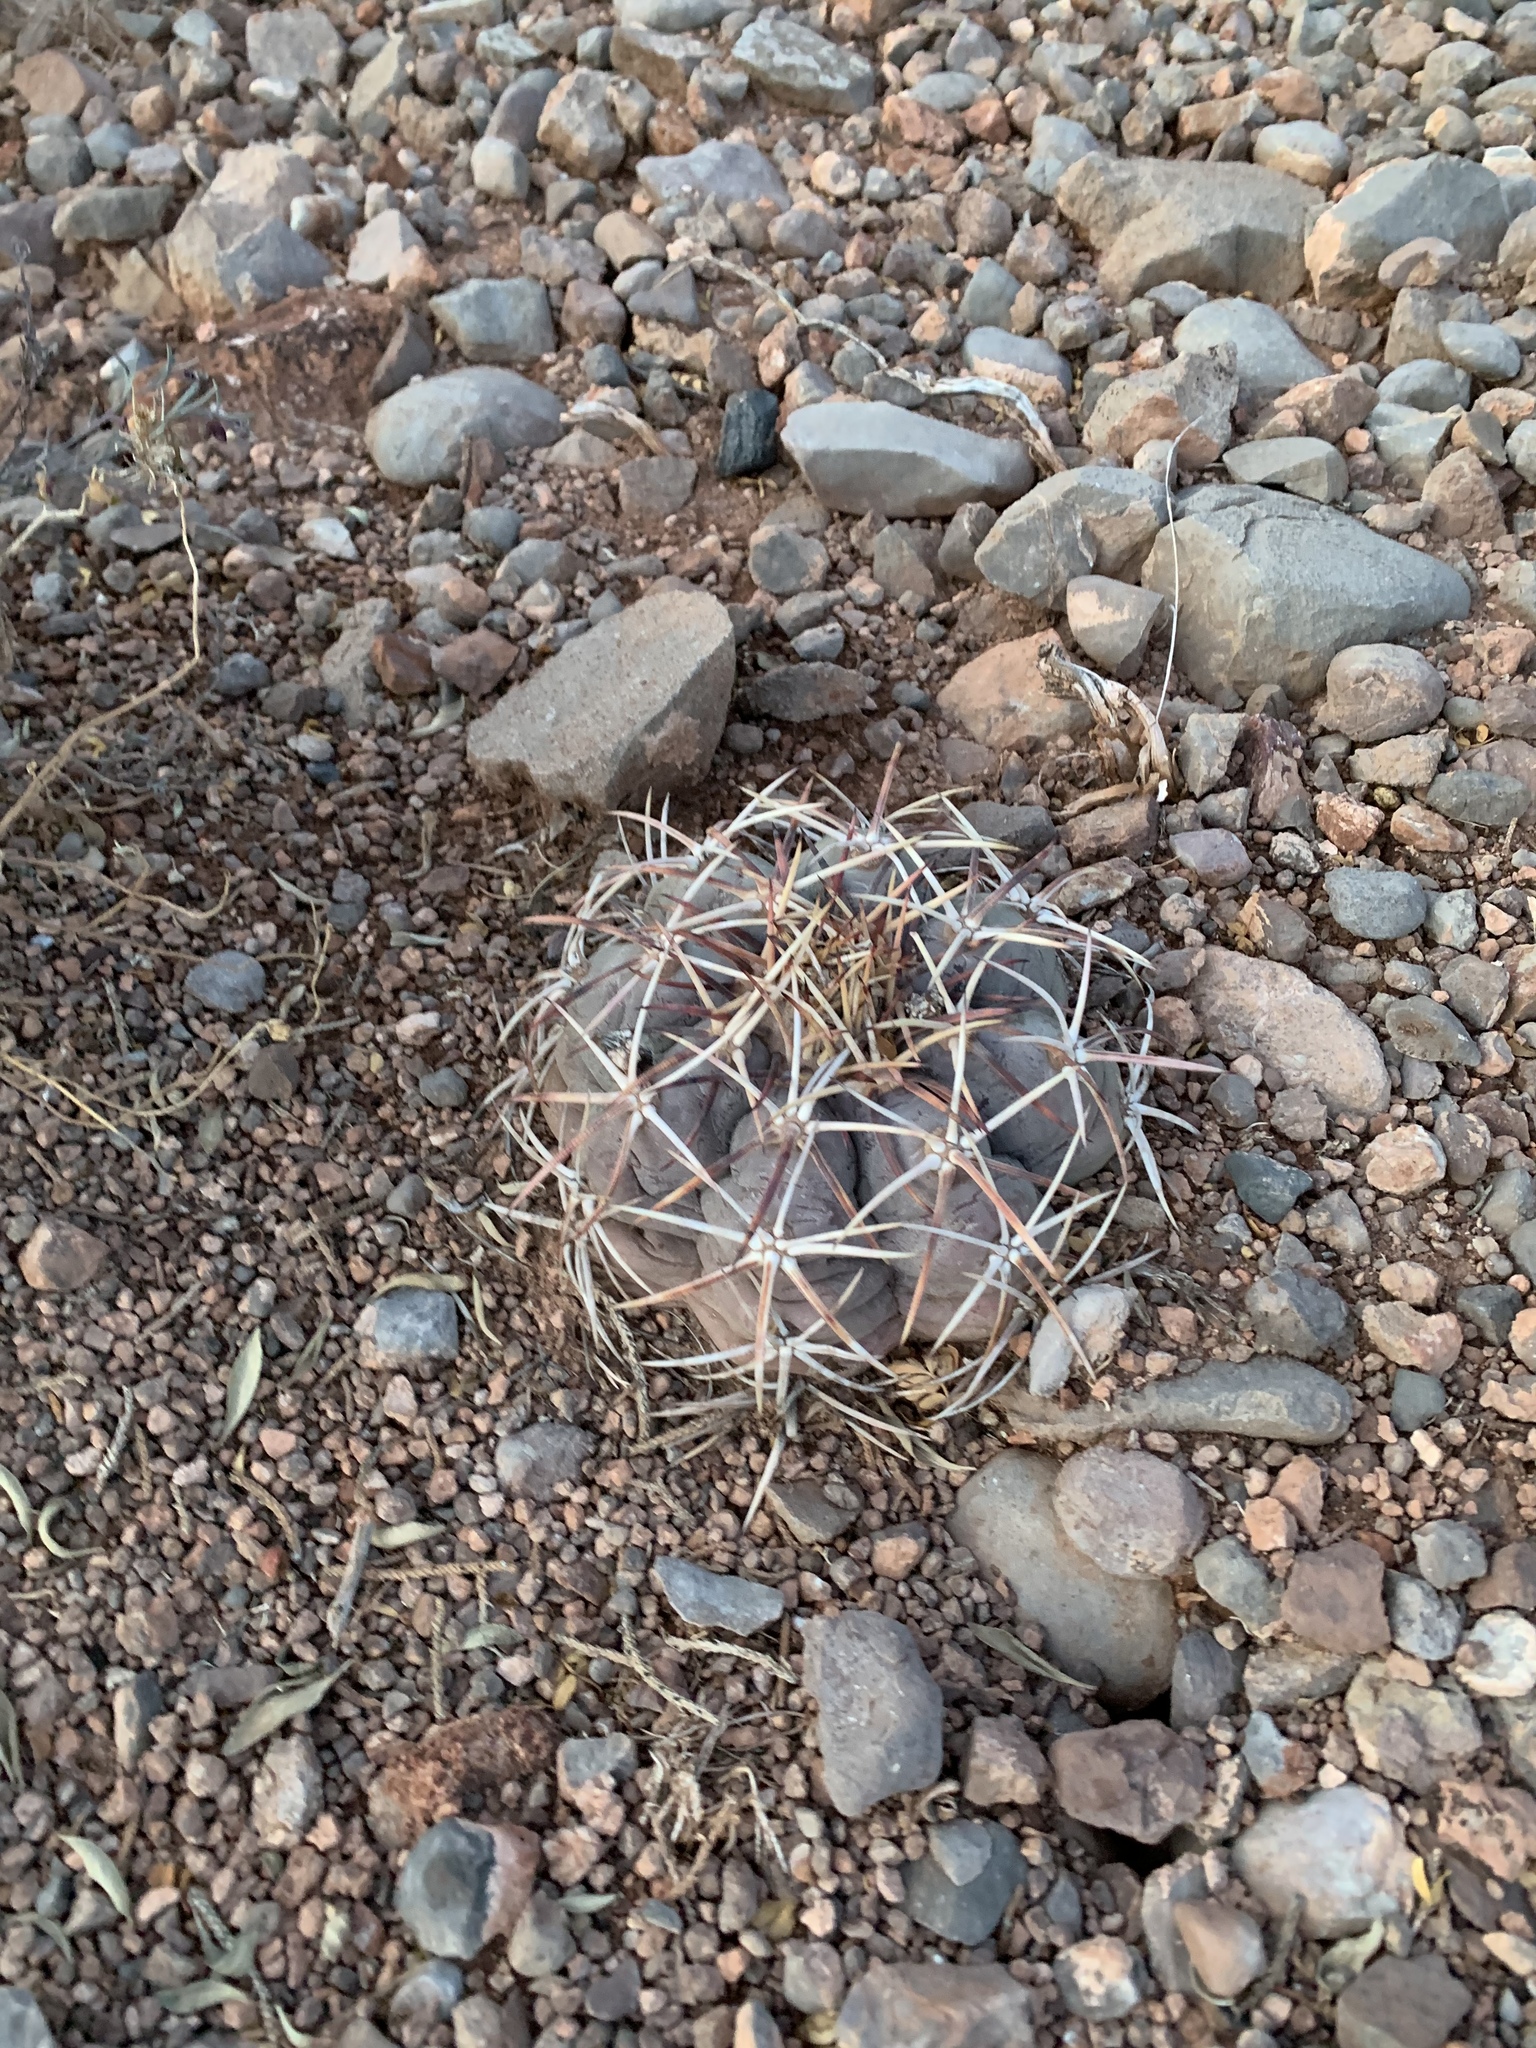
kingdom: Plantae
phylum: Tracheophyta
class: Magnoliopsida
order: Caryophyllales
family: Cactaceae
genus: Echinocactus
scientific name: Echinocactus horizonthalonius
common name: Devilshead
